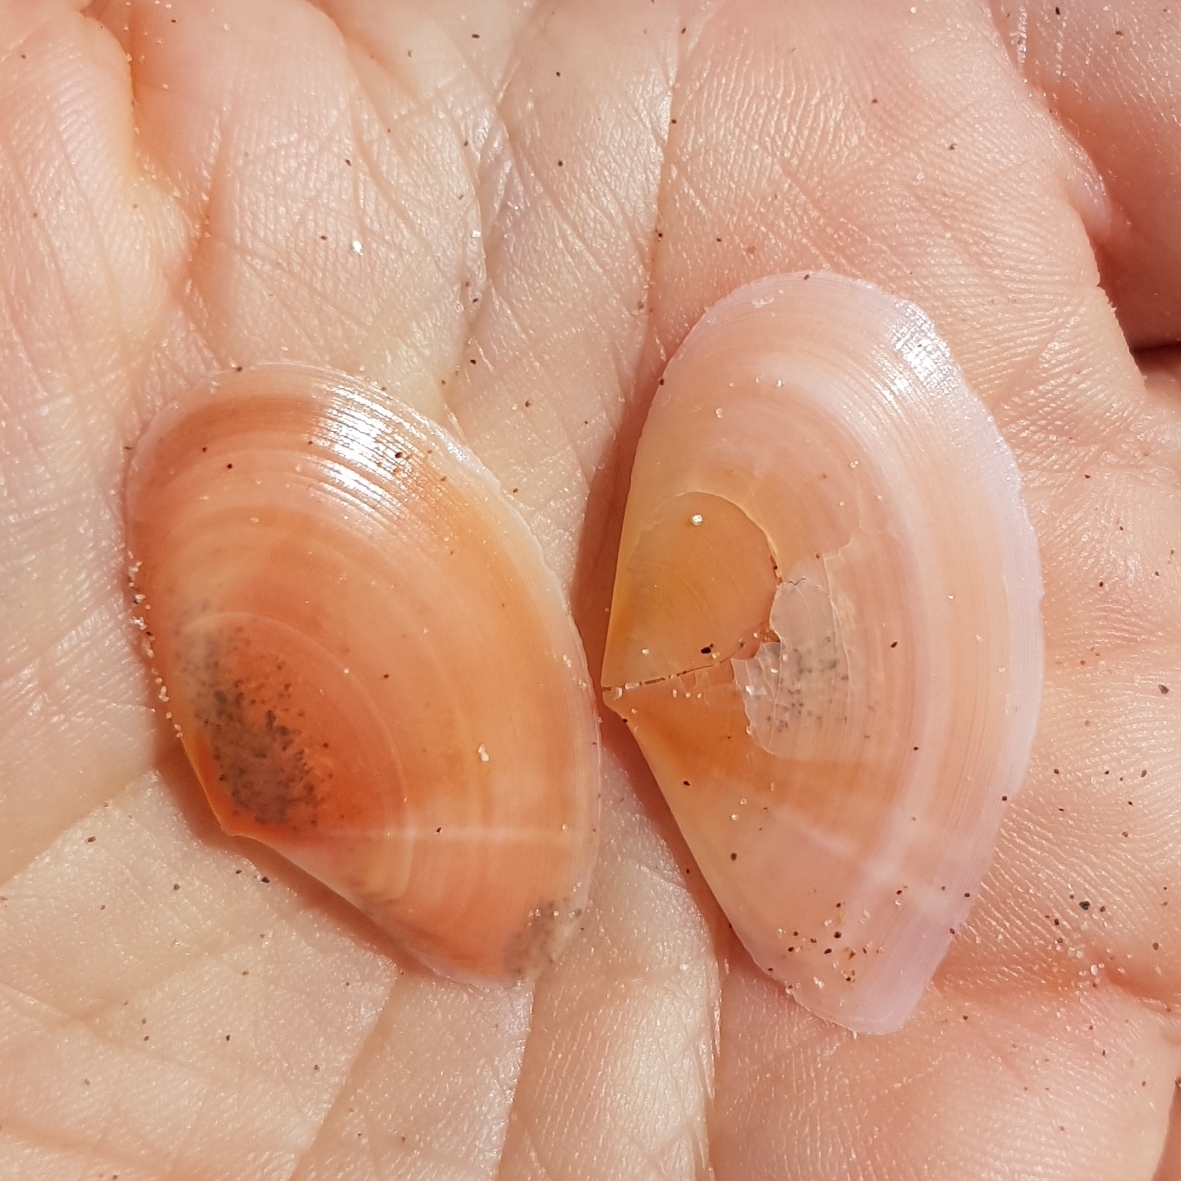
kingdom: Animalia
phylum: Mollusca
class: Bivalvia
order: Cardiida
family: Tellinidae
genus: Bosemprella
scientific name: Bosemprella incarnata
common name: Red tellin
